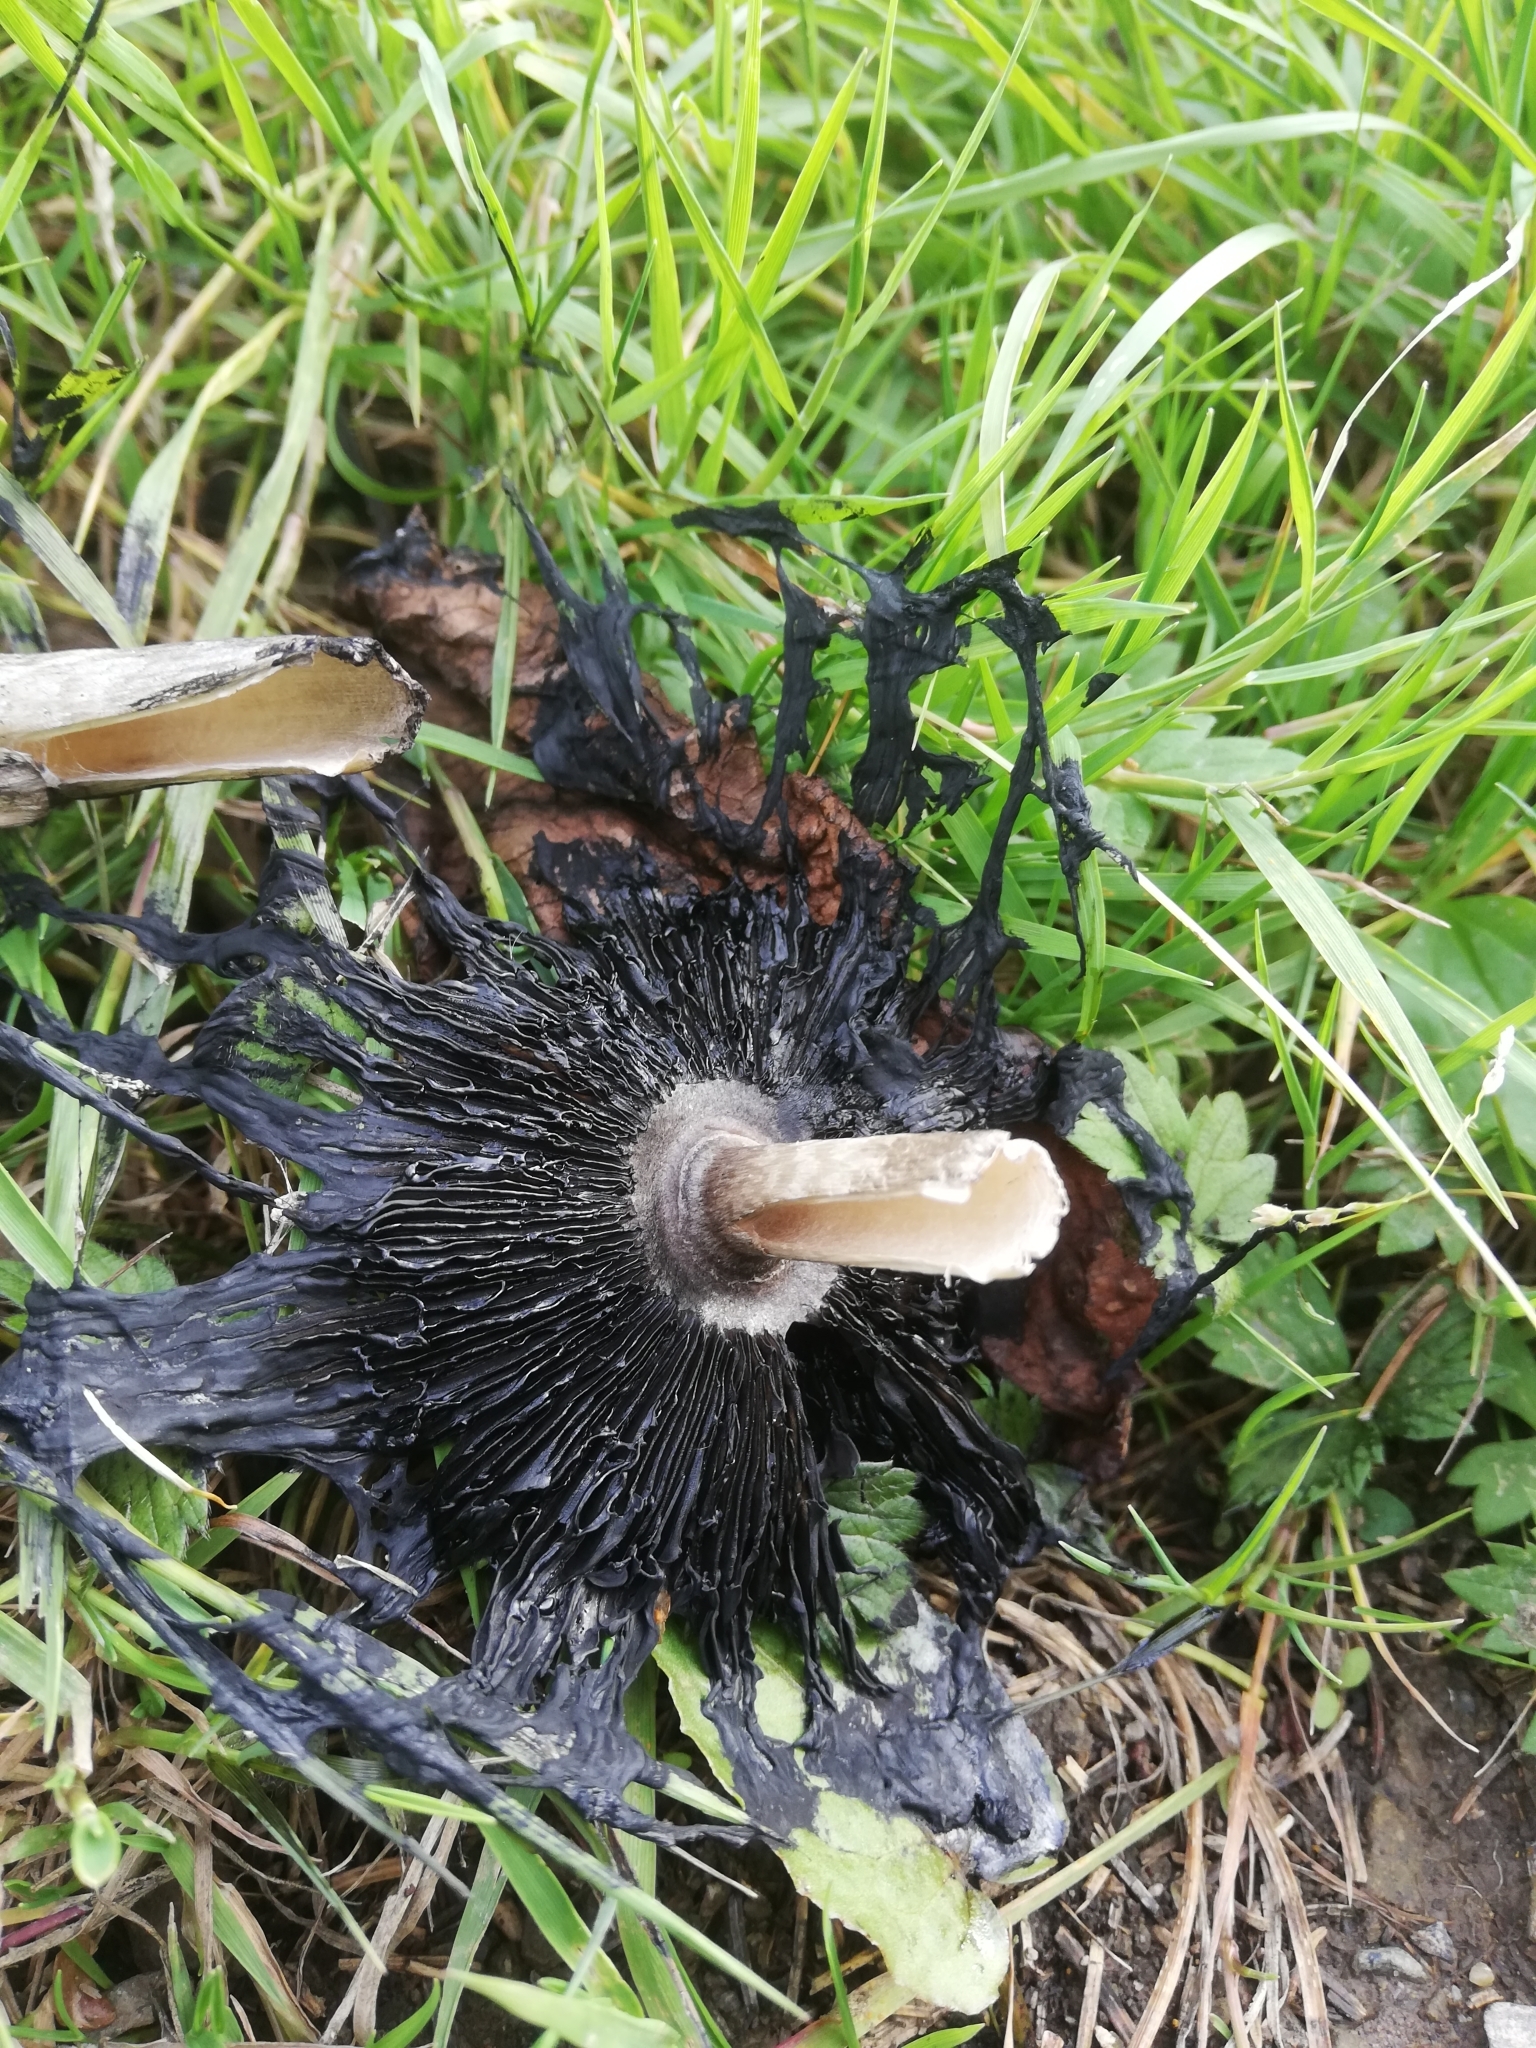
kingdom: Fungi
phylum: Basidiomycota
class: Agaricomycetes
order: Agaricales
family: Agaricaceae
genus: Coprinus
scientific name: Coprinus comatus
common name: Lawyer's wig
